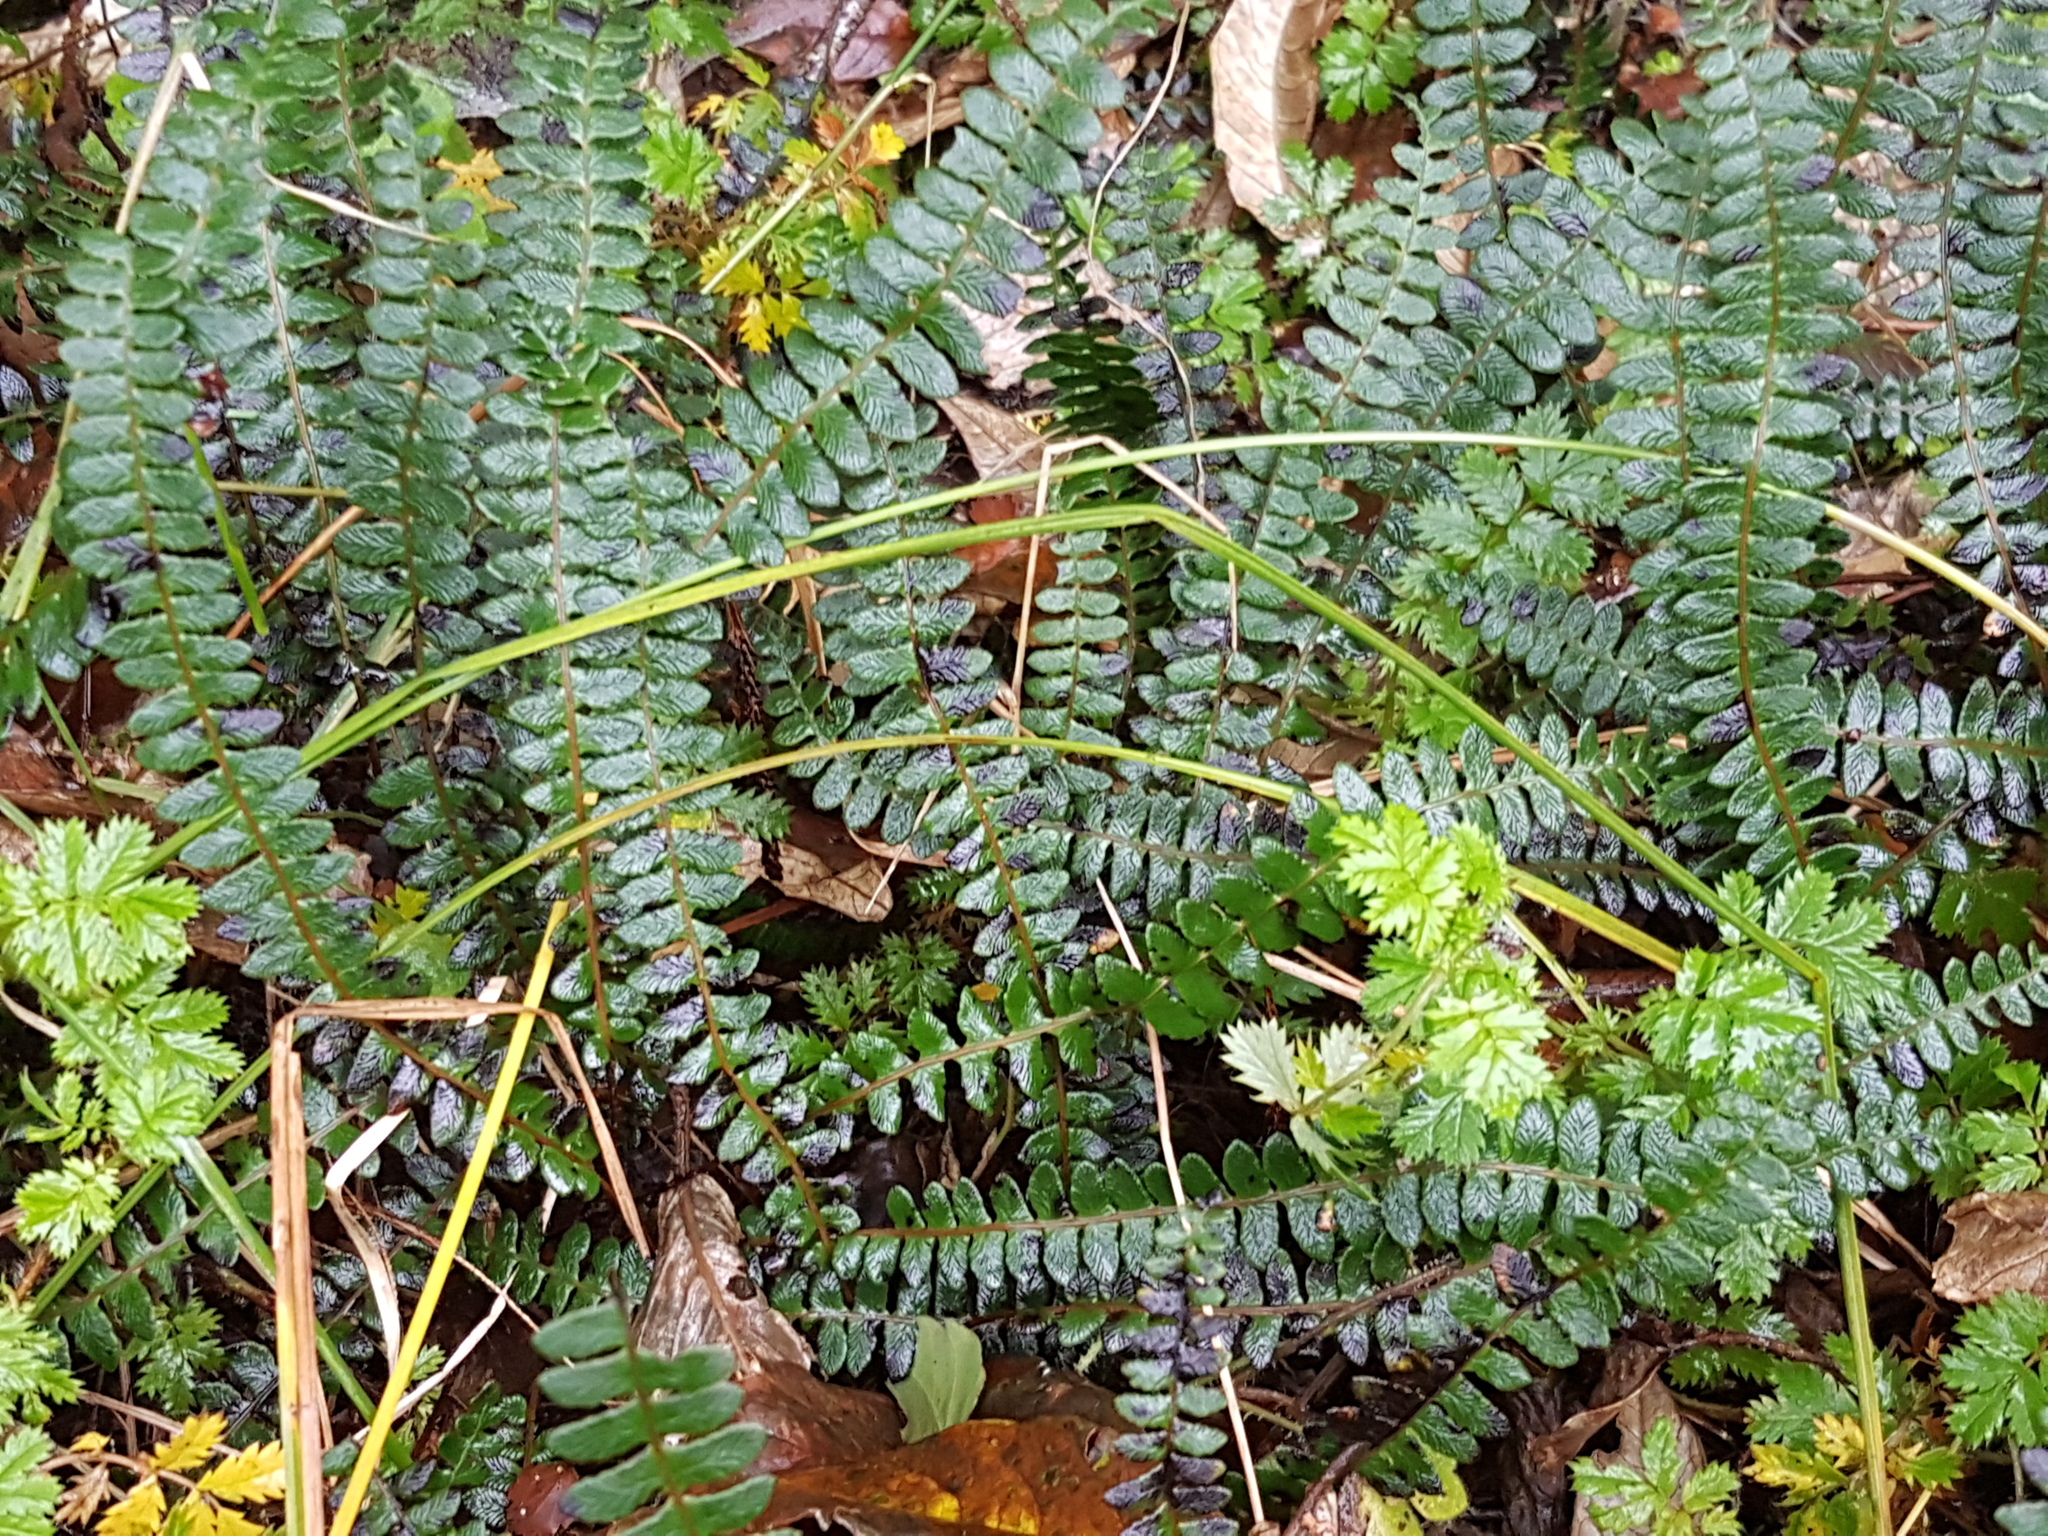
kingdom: Plantae
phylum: Tracheophyta
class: Polypodiopsida
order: Polypodiales
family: Blechnaceae
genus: Austroblechnum
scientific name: Austroblechnum penna-marina
